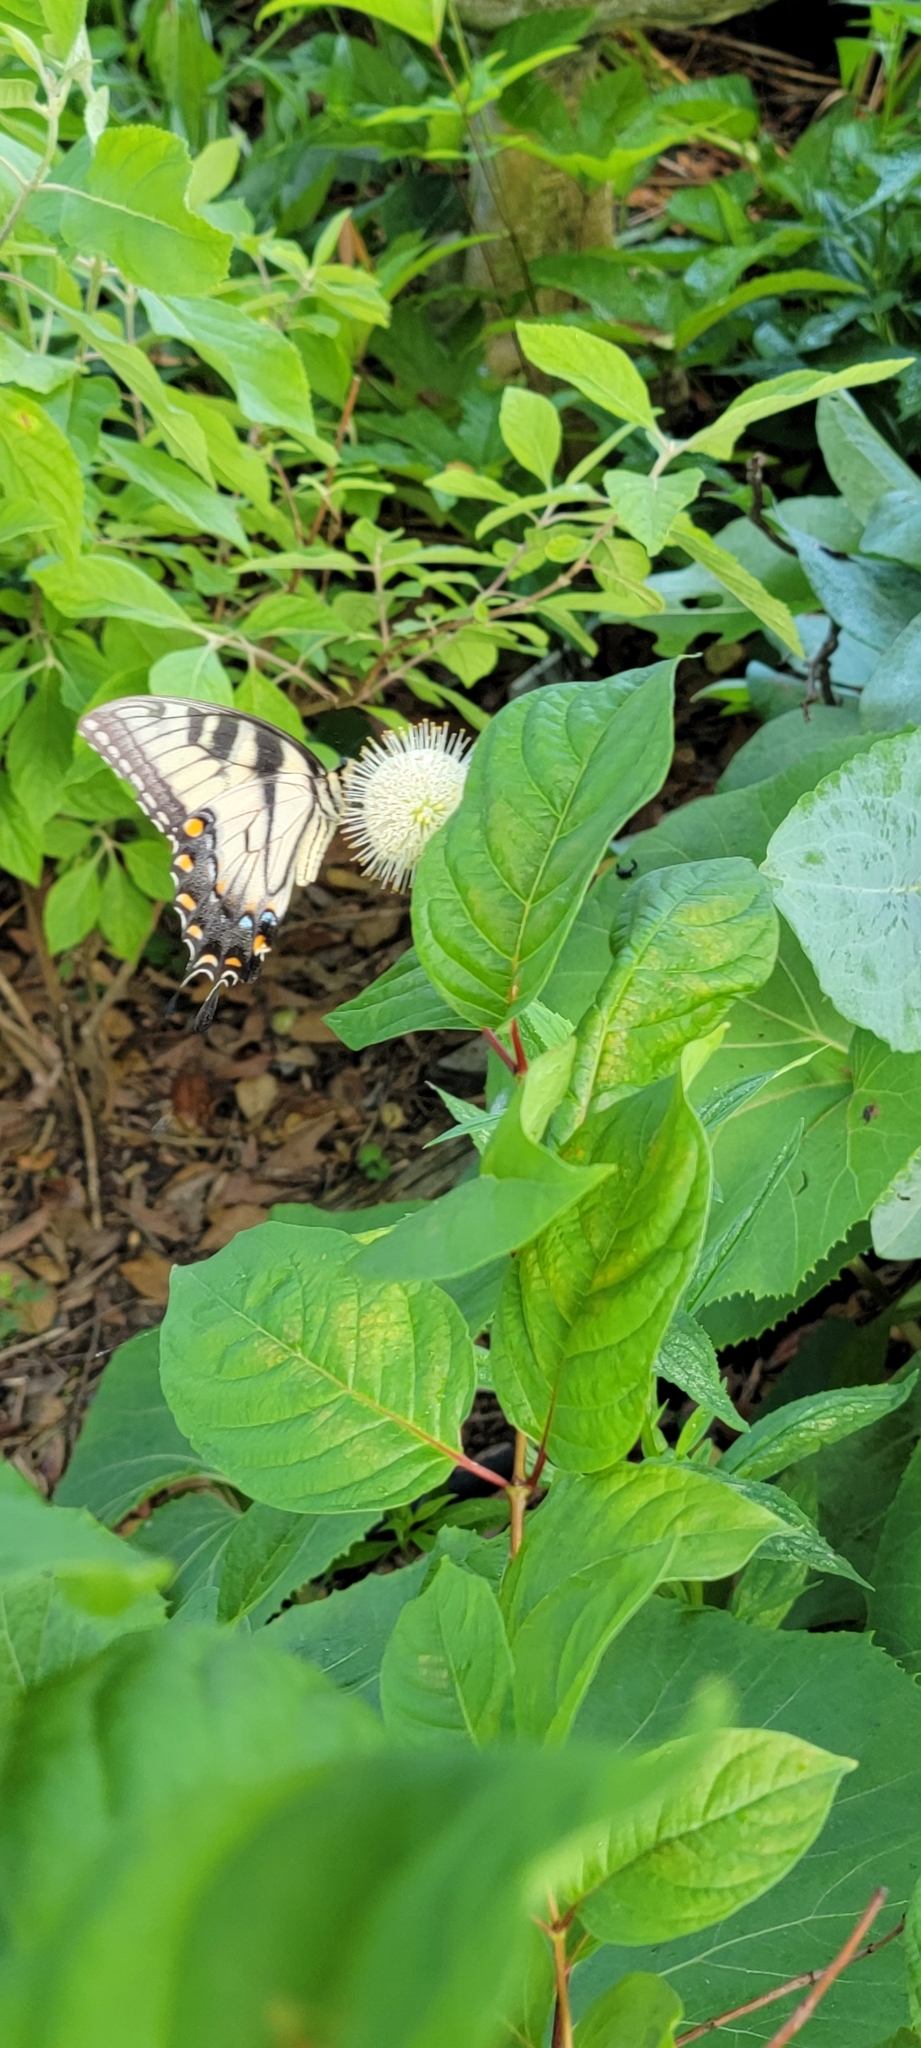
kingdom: Animalia
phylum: Arthropoda
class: Insecta
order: Lepidoptera
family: Papilionidae
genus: Papilio
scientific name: Papilio glaucus
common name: Tiger swallowtail
